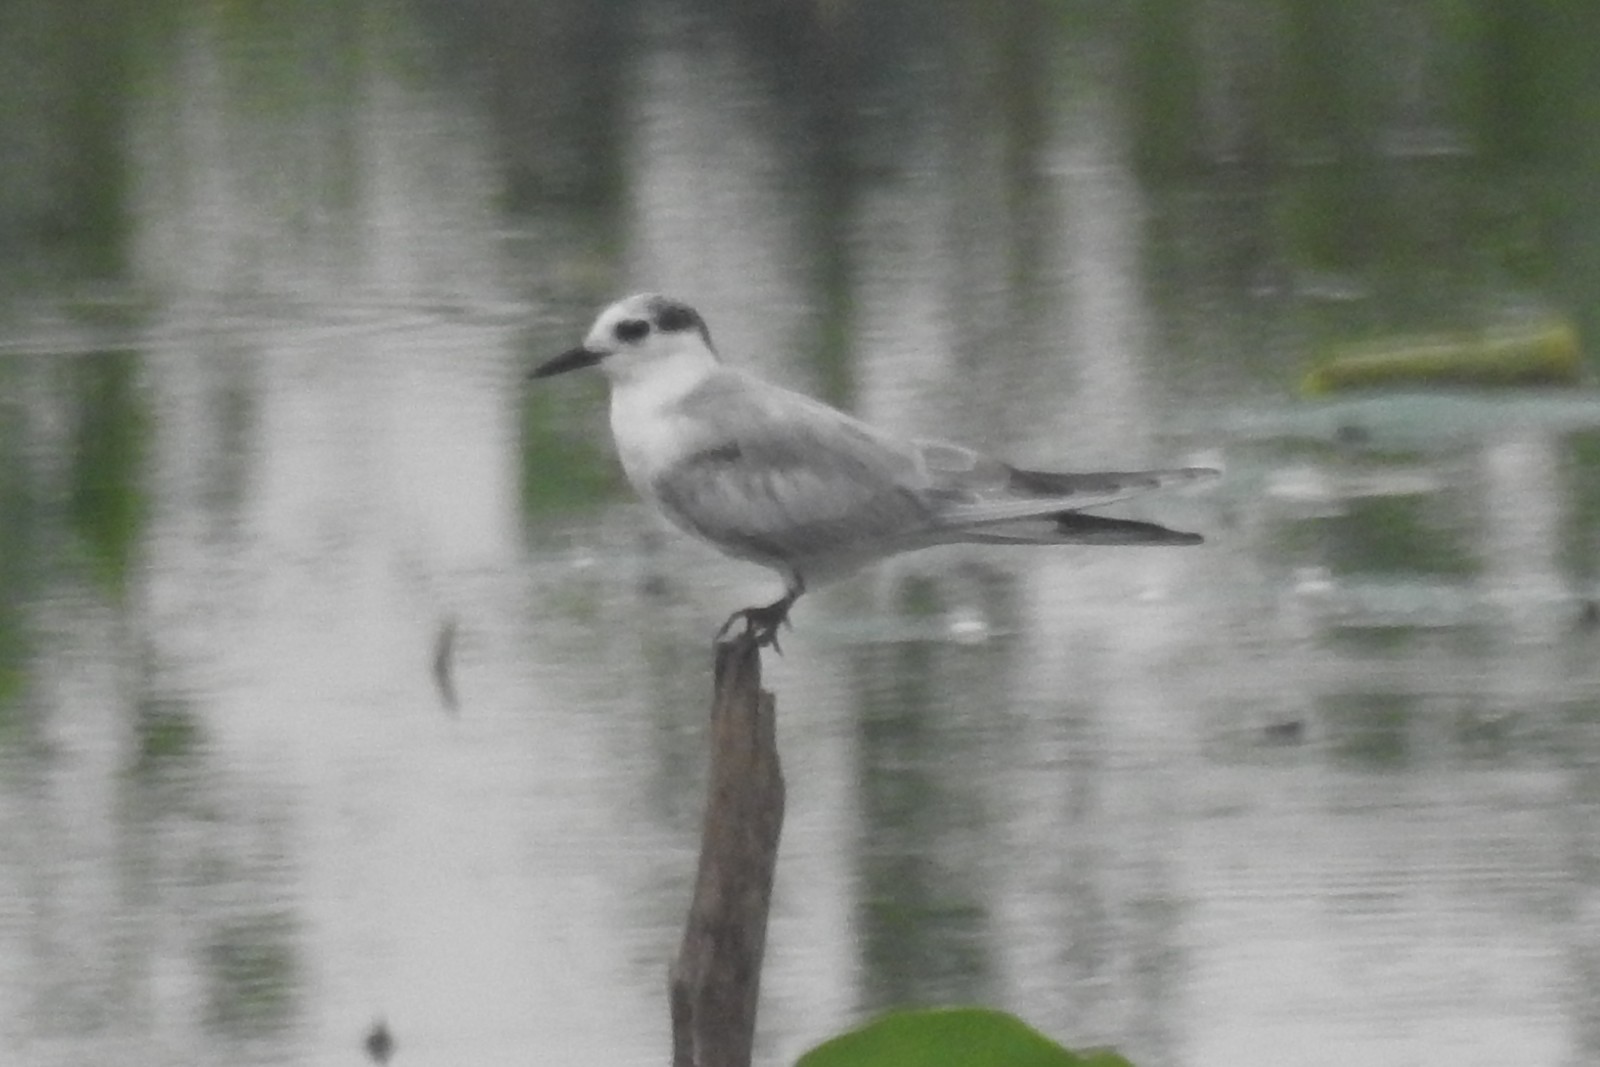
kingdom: Animalia
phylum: Chordata
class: Aves
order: Charadriiformes
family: Laridae
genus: Chlidonias
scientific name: Chlidonias hybrida
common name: Whiskered tern
